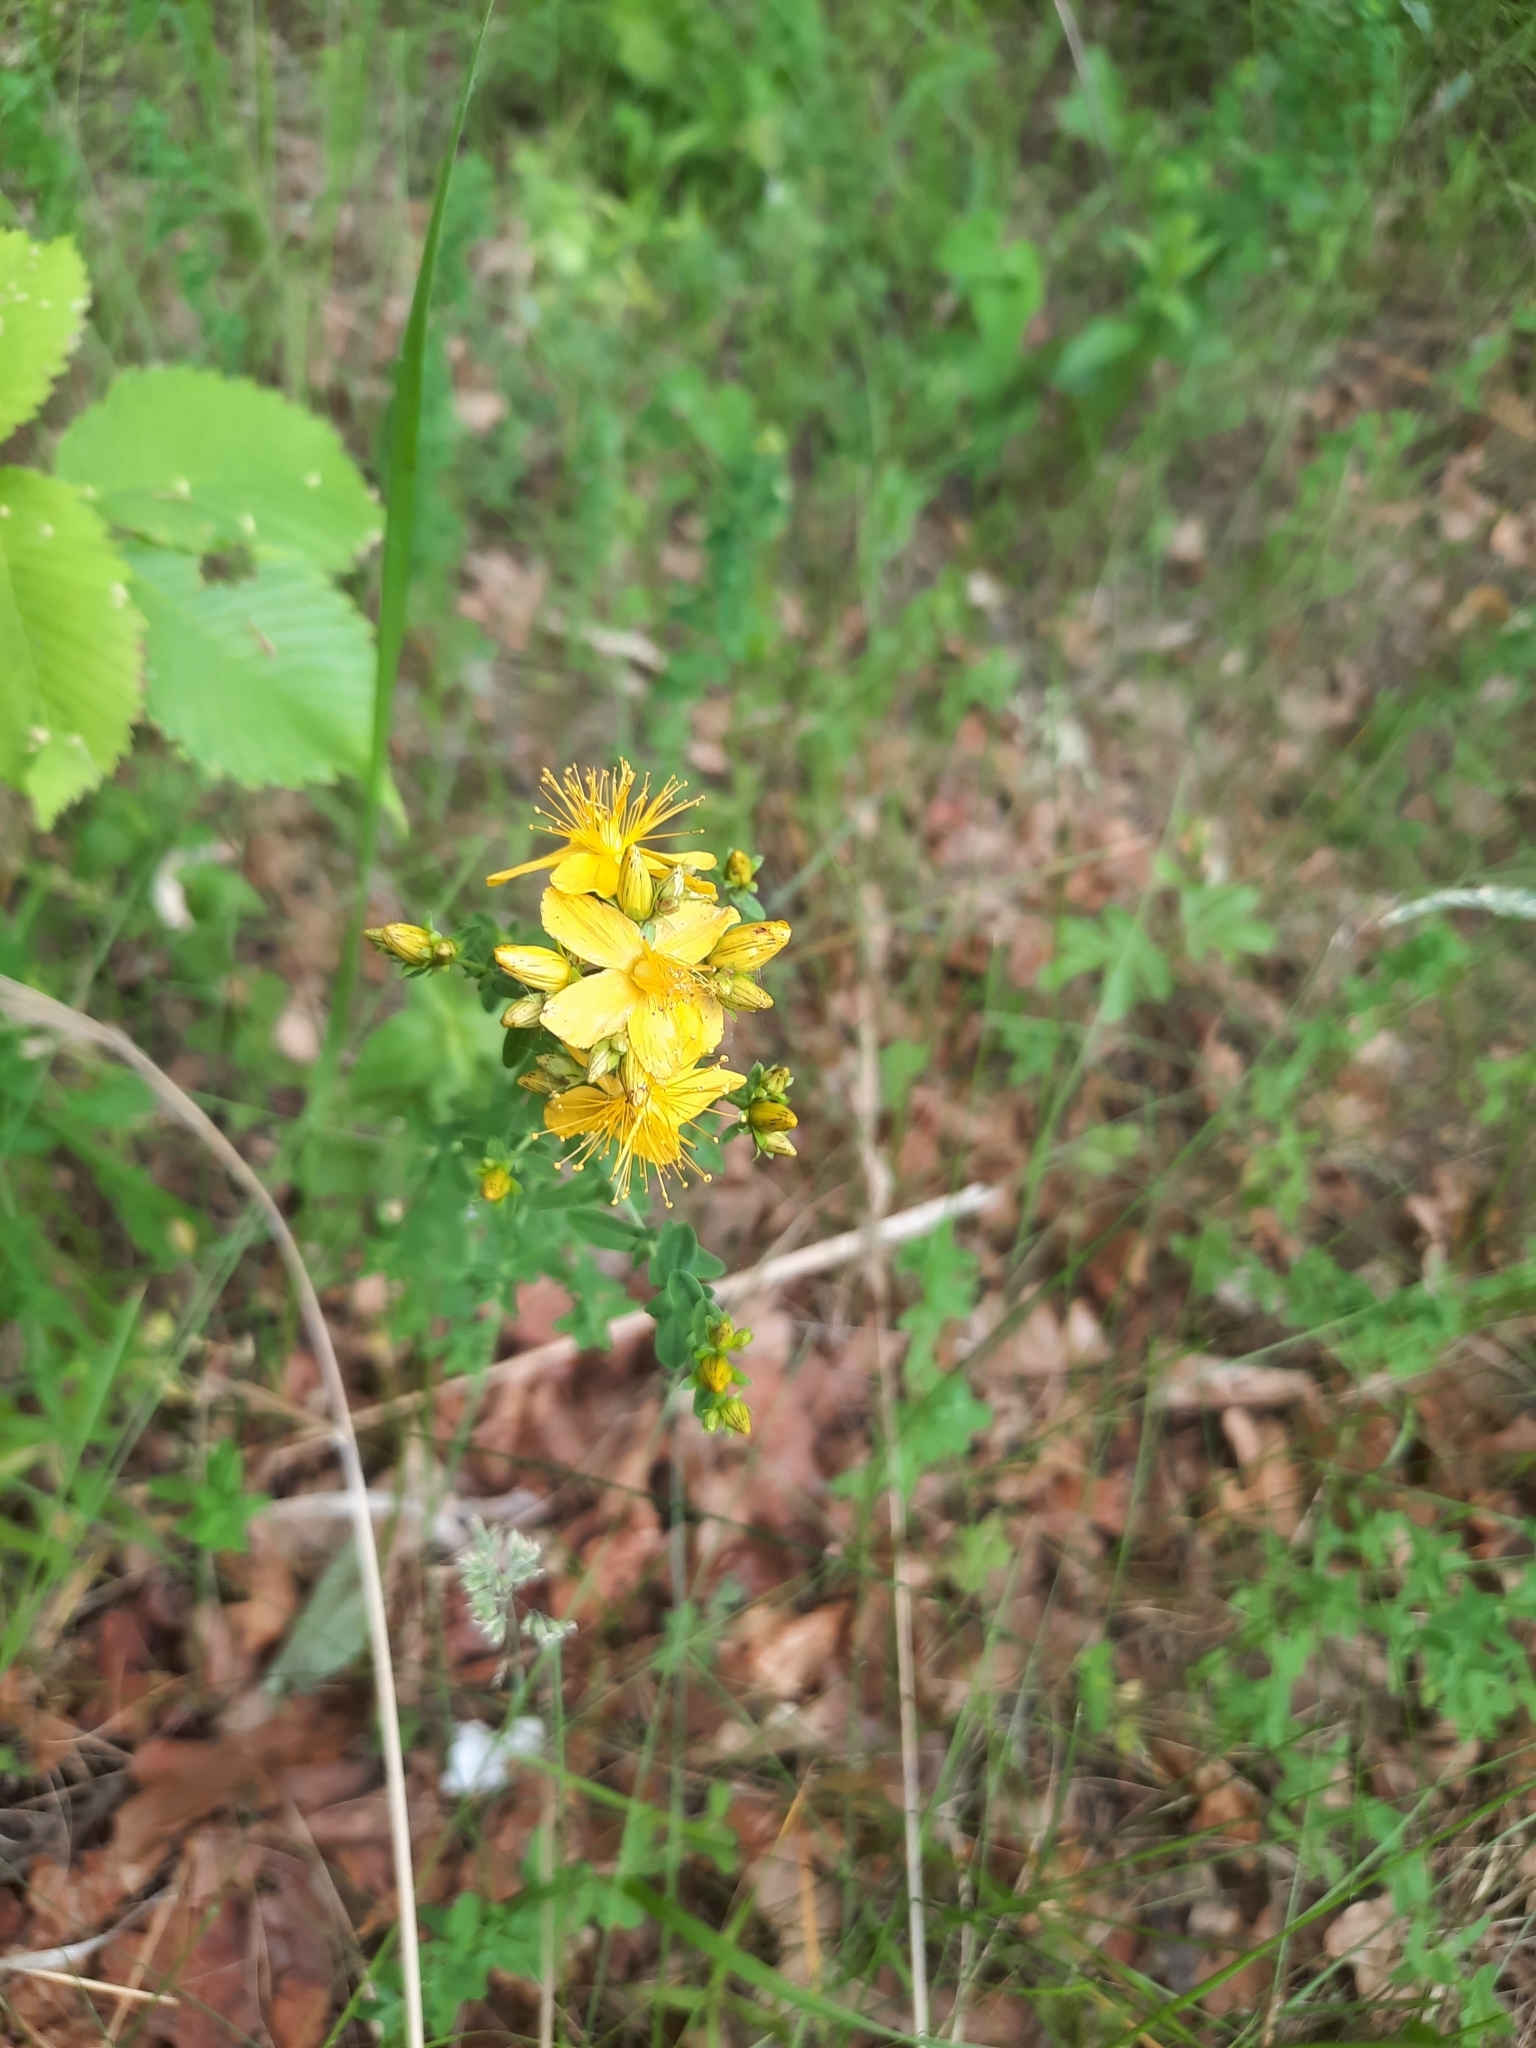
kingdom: Plantae
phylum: Tracheophyta
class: Magnoliopsida
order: Malpighiales
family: Hypericaceae
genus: Hypericum
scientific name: Hypericum perforatum
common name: Common st. johnswort
